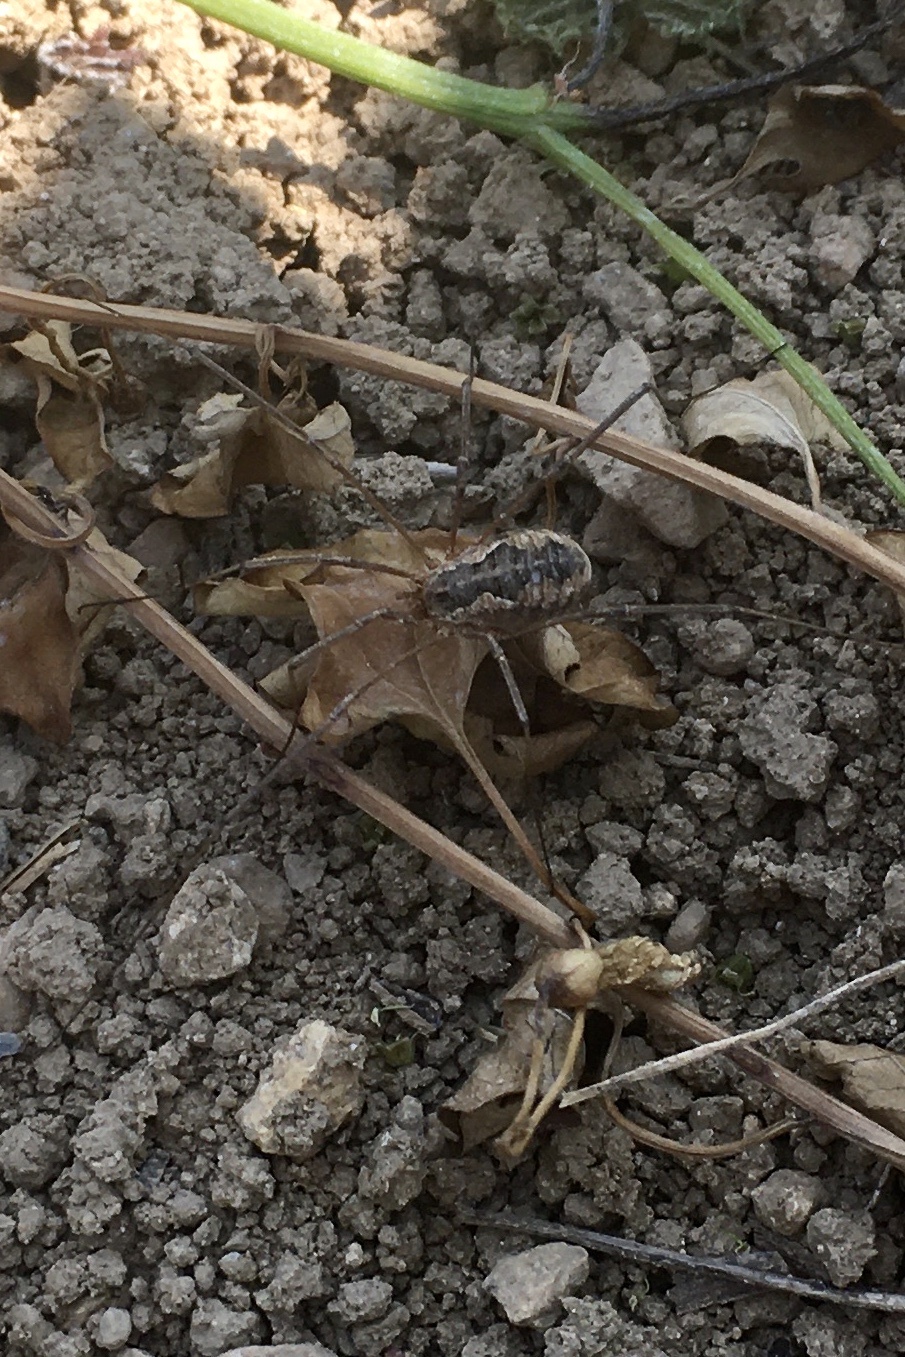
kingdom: Animalia
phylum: Arthropoda
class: Arachnida
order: Opiliones
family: Phalangiidae
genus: Phalangium
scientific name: Phalangium opilio
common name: Daddy longleg
